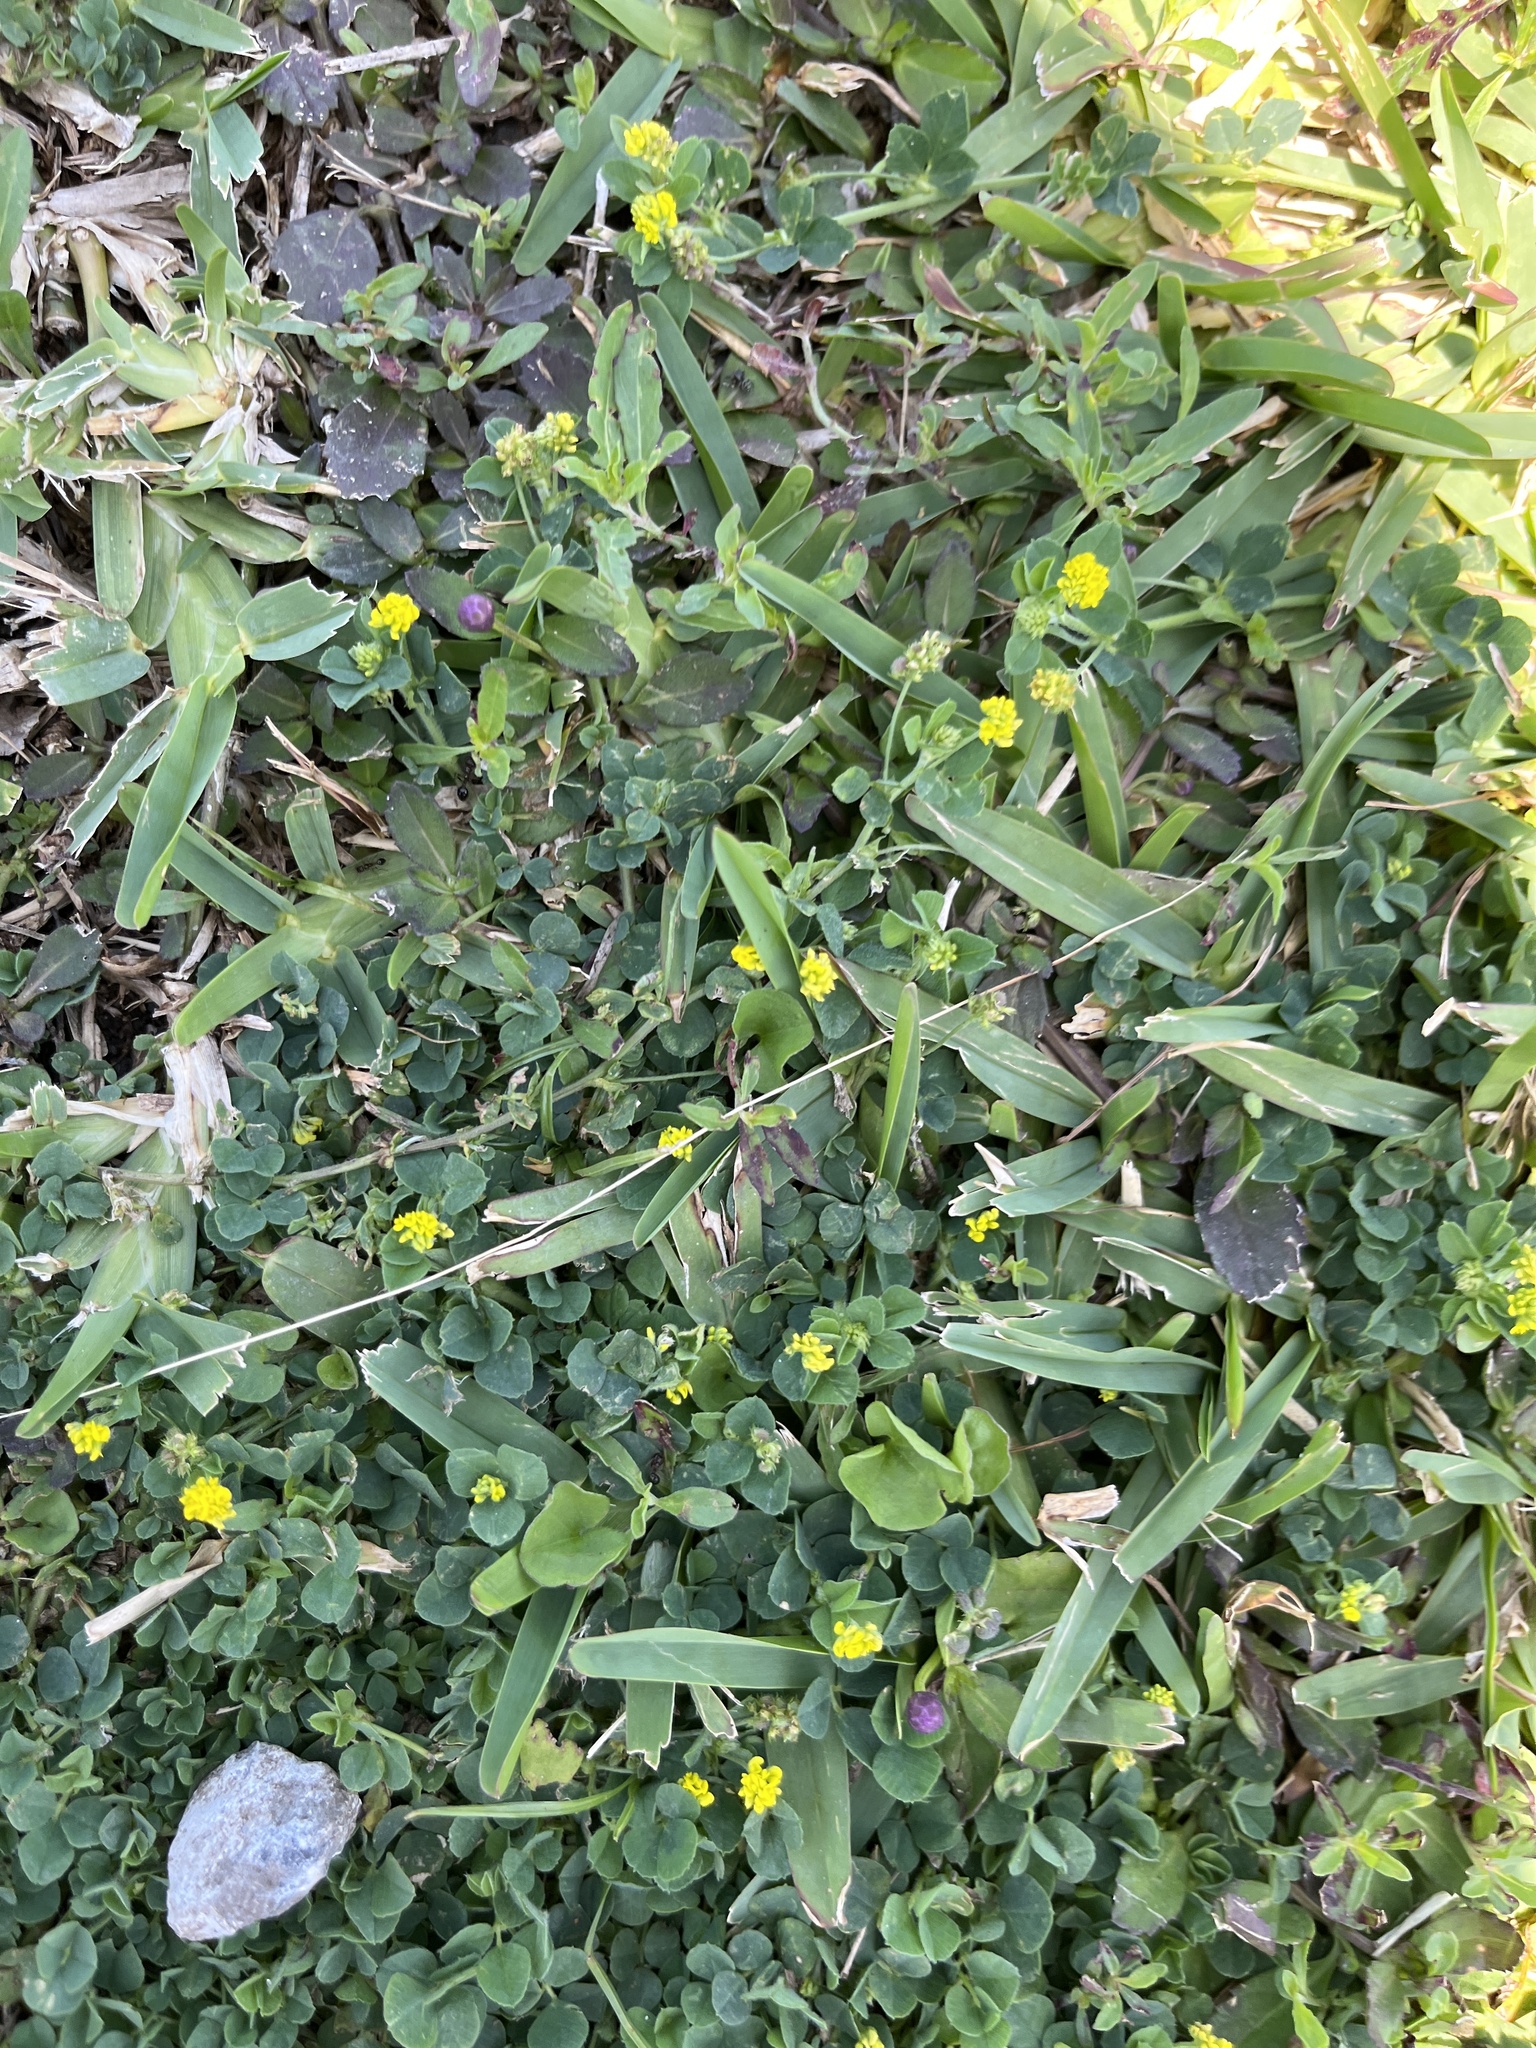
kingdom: Plantae
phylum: Tracheophyta
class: Magnoliopsida
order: Fabales
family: Fabaceae
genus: Medicago
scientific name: Medicago lupulina
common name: Black medick
